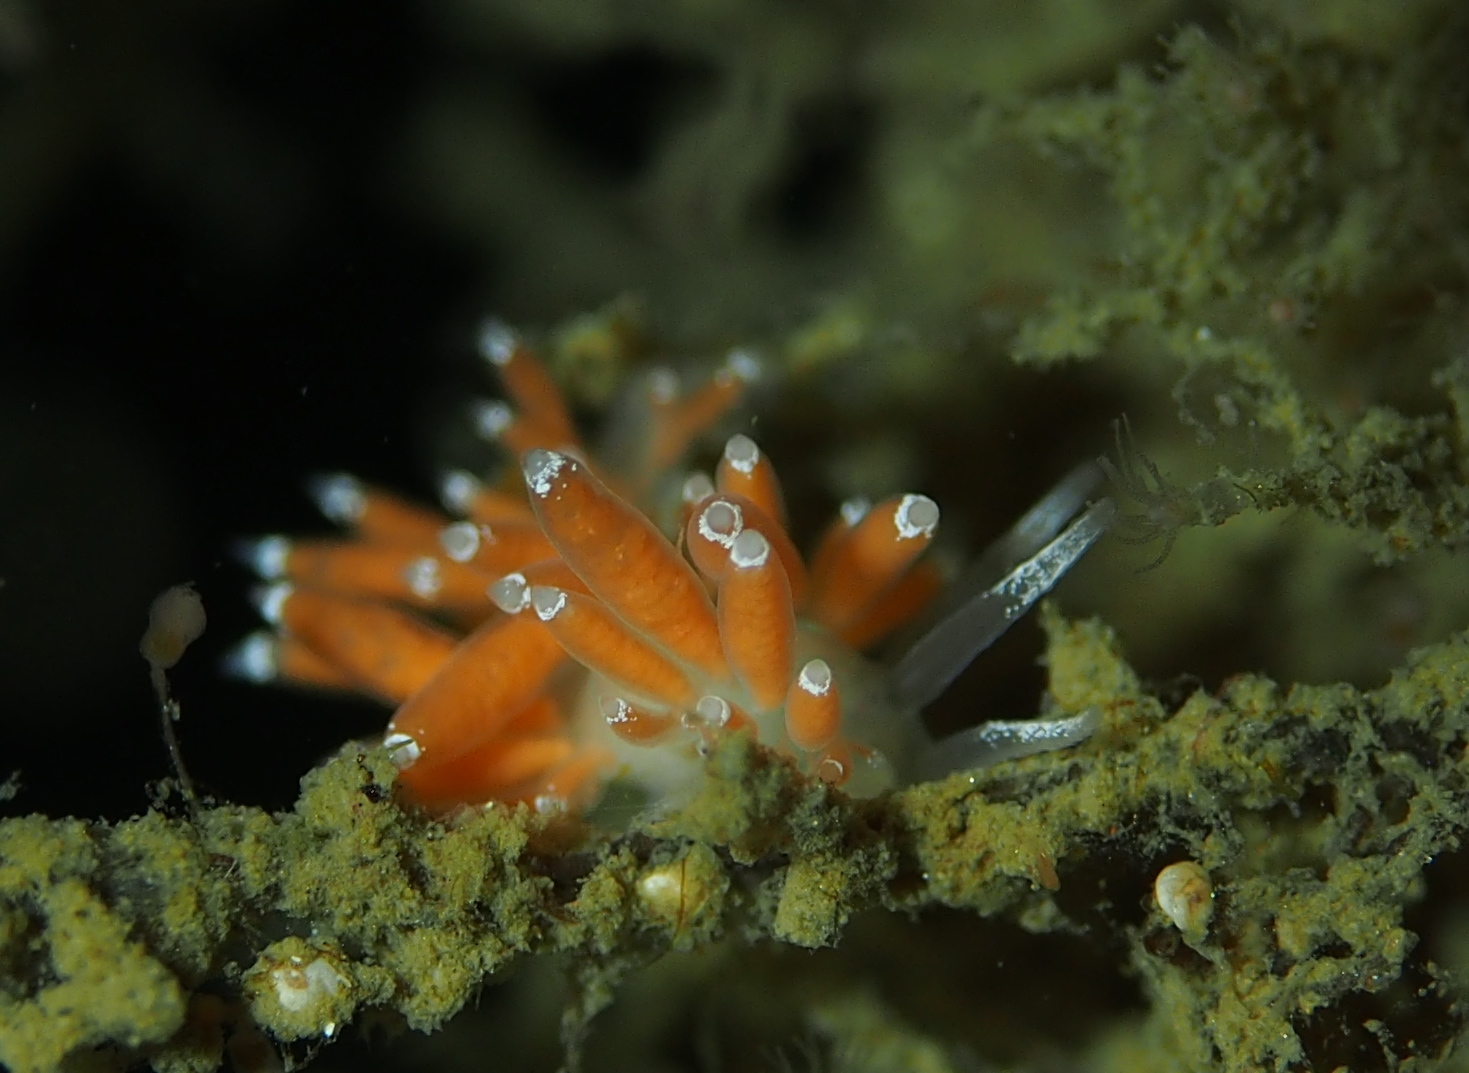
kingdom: Animalia
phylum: Mollusca
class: Gastropoda
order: Nudibranchia
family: Coryphellidae
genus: Coryphella
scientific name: Coryphella gracilis
